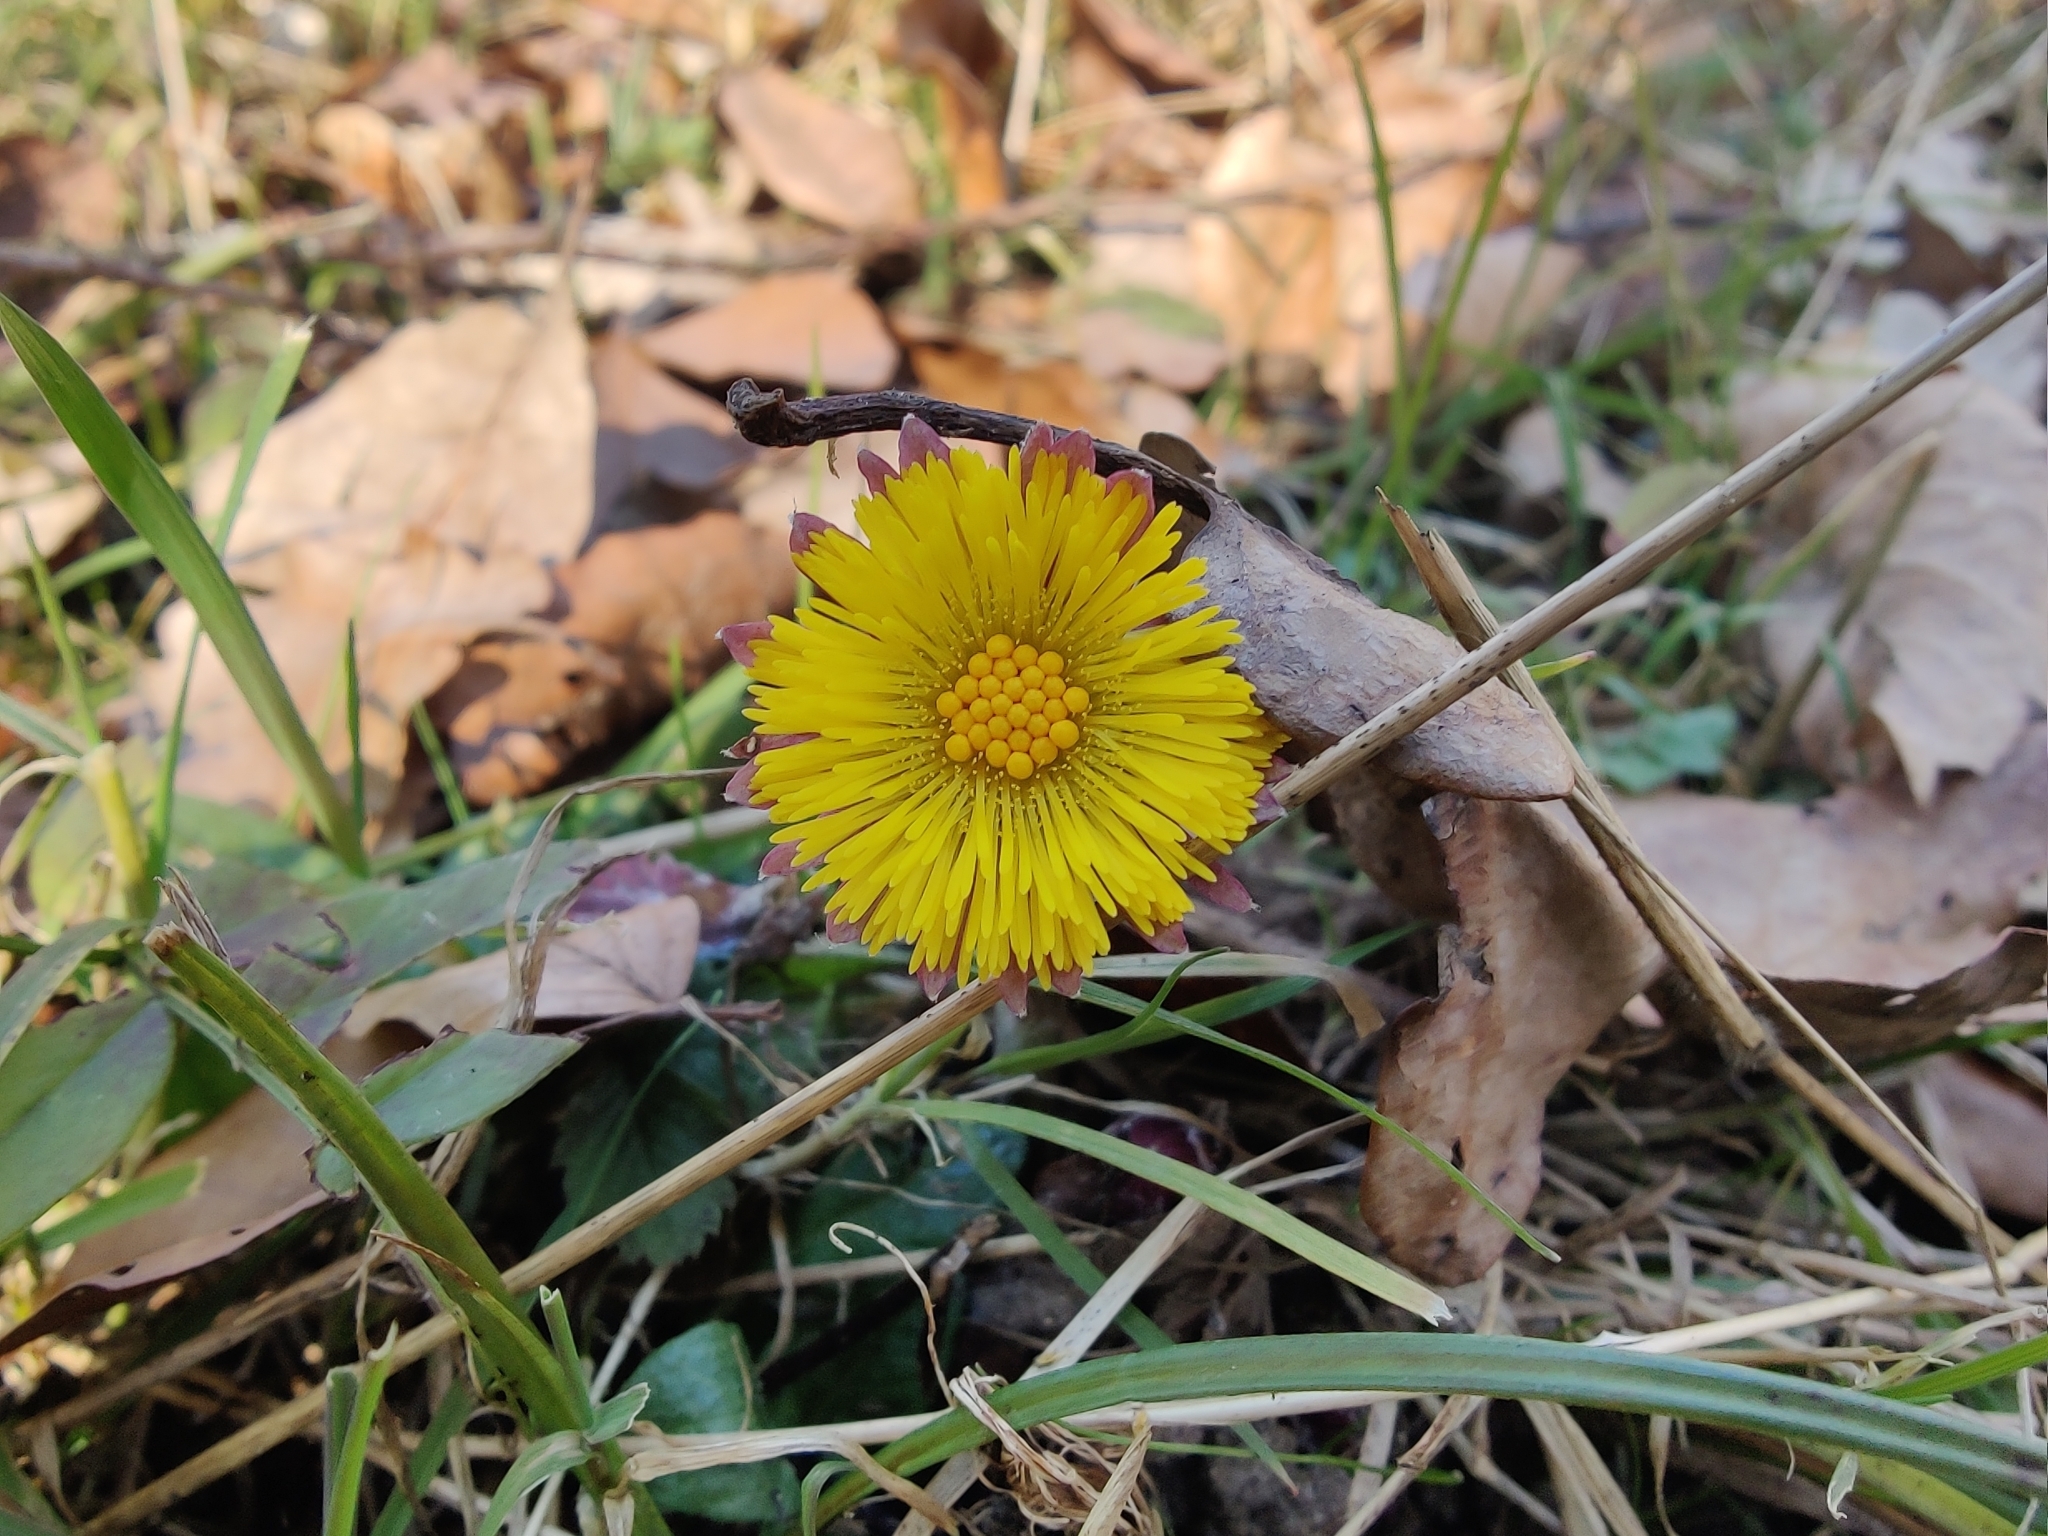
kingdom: Plantae
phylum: Tracheophyta
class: Magnoliopsida
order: Asterales
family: Asteraceae
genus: Tussilago
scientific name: Tussilago farfara
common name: Coltsfoot
